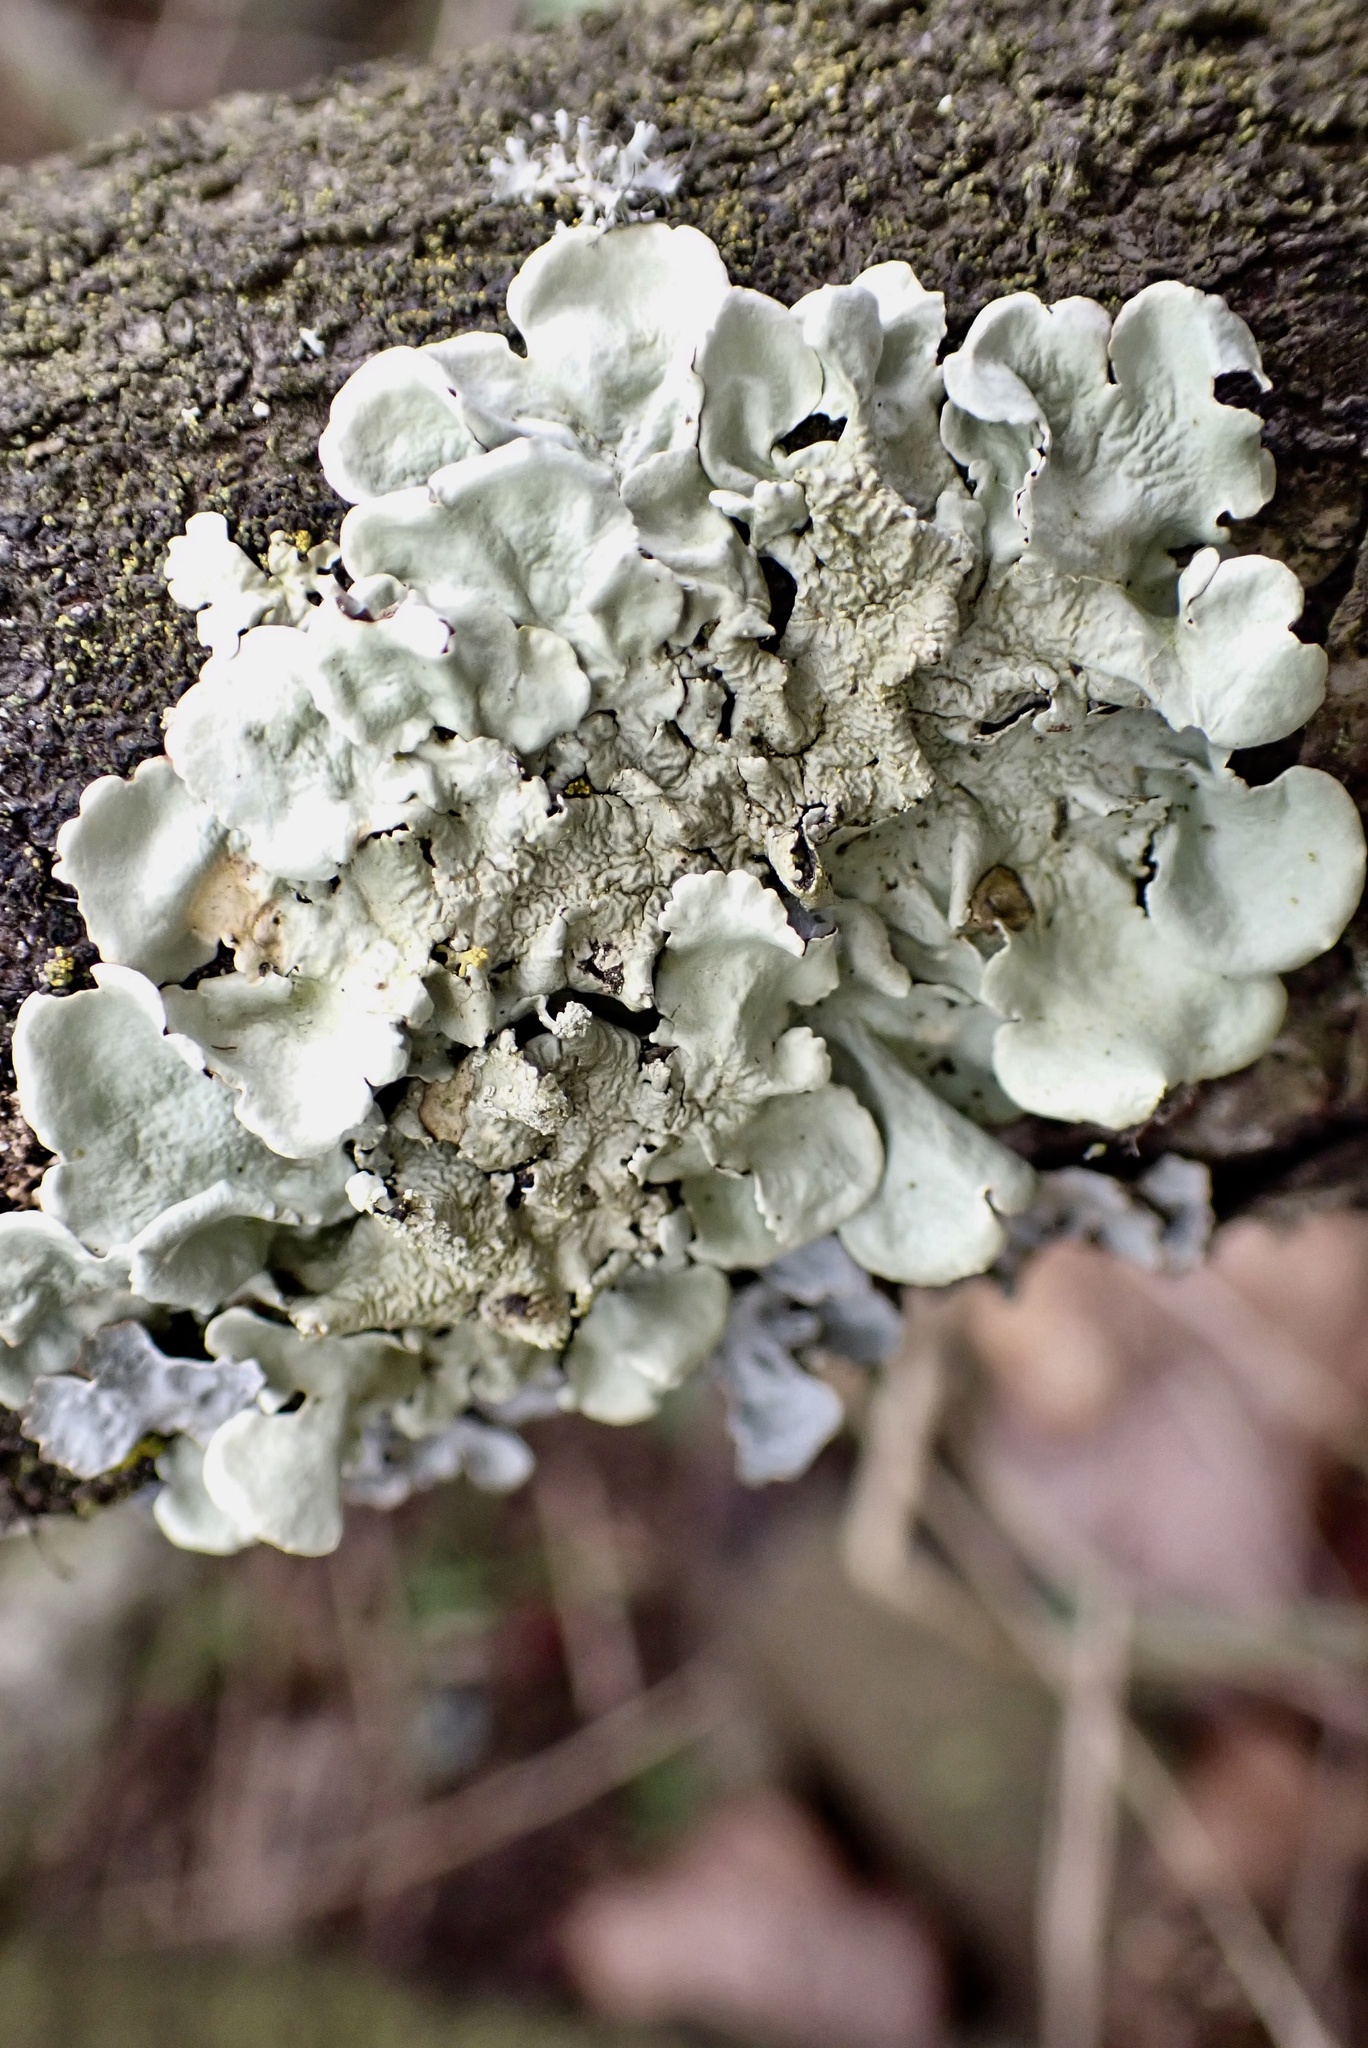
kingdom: Fungi
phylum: Ascomycota
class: Lecanoromycetes
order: Lecanorales
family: Parmeliaceae
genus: Flavoparmelia
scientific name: Flavoparmelia caperata
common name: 40-mile per hour lichen
